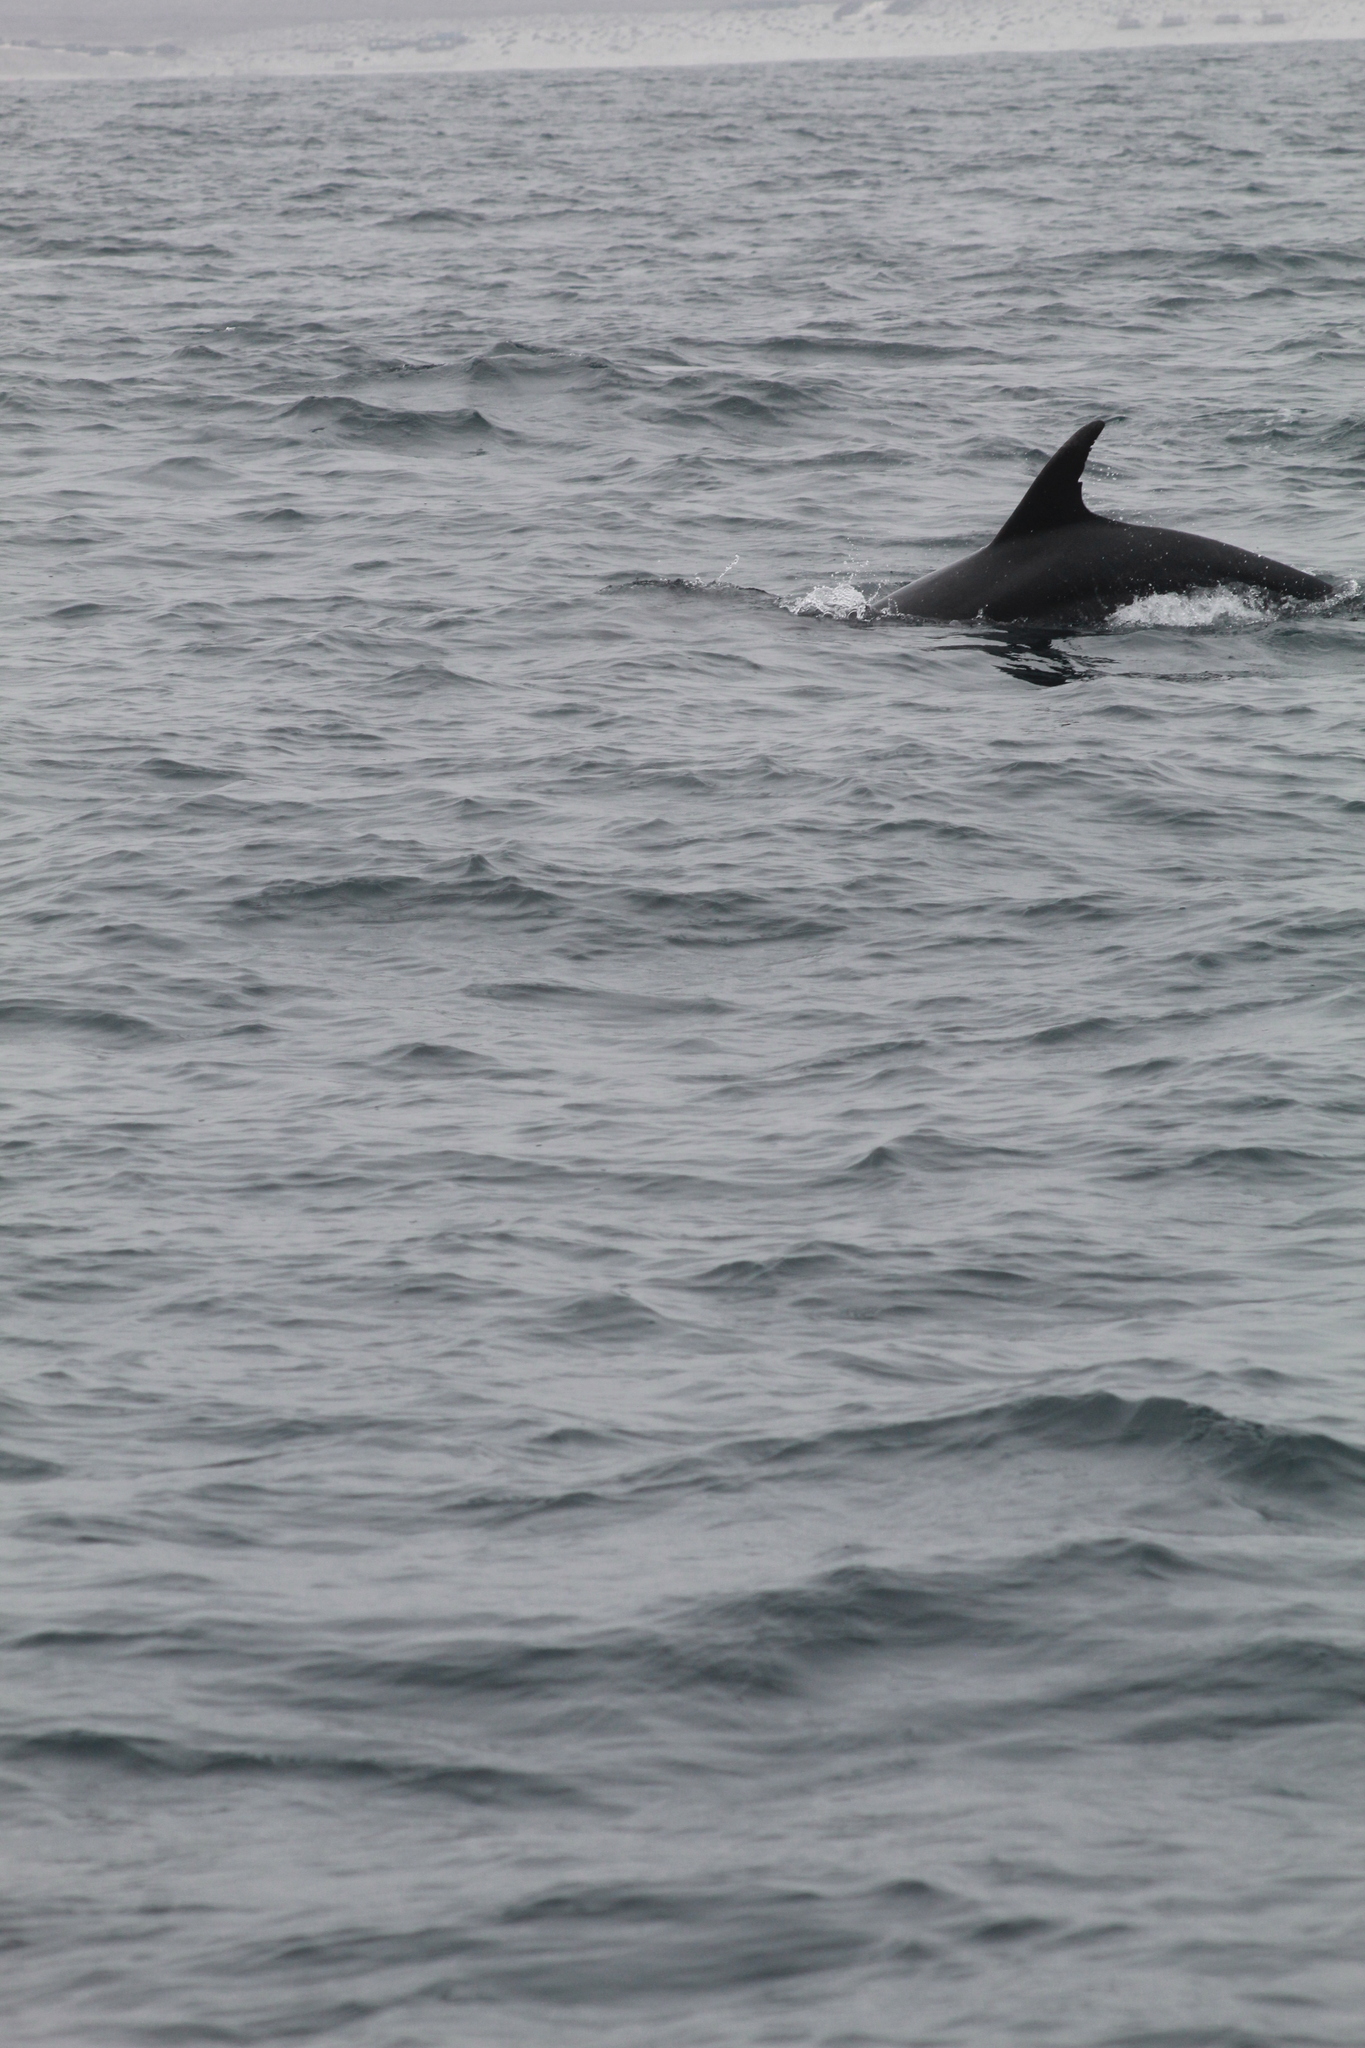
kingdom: Animalia
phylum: Chordata
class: Mammalia
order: Cetacea
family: Delphinidae
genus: Tursiops
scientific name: Tursiops truncatus
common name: Bottlenose dolphin
